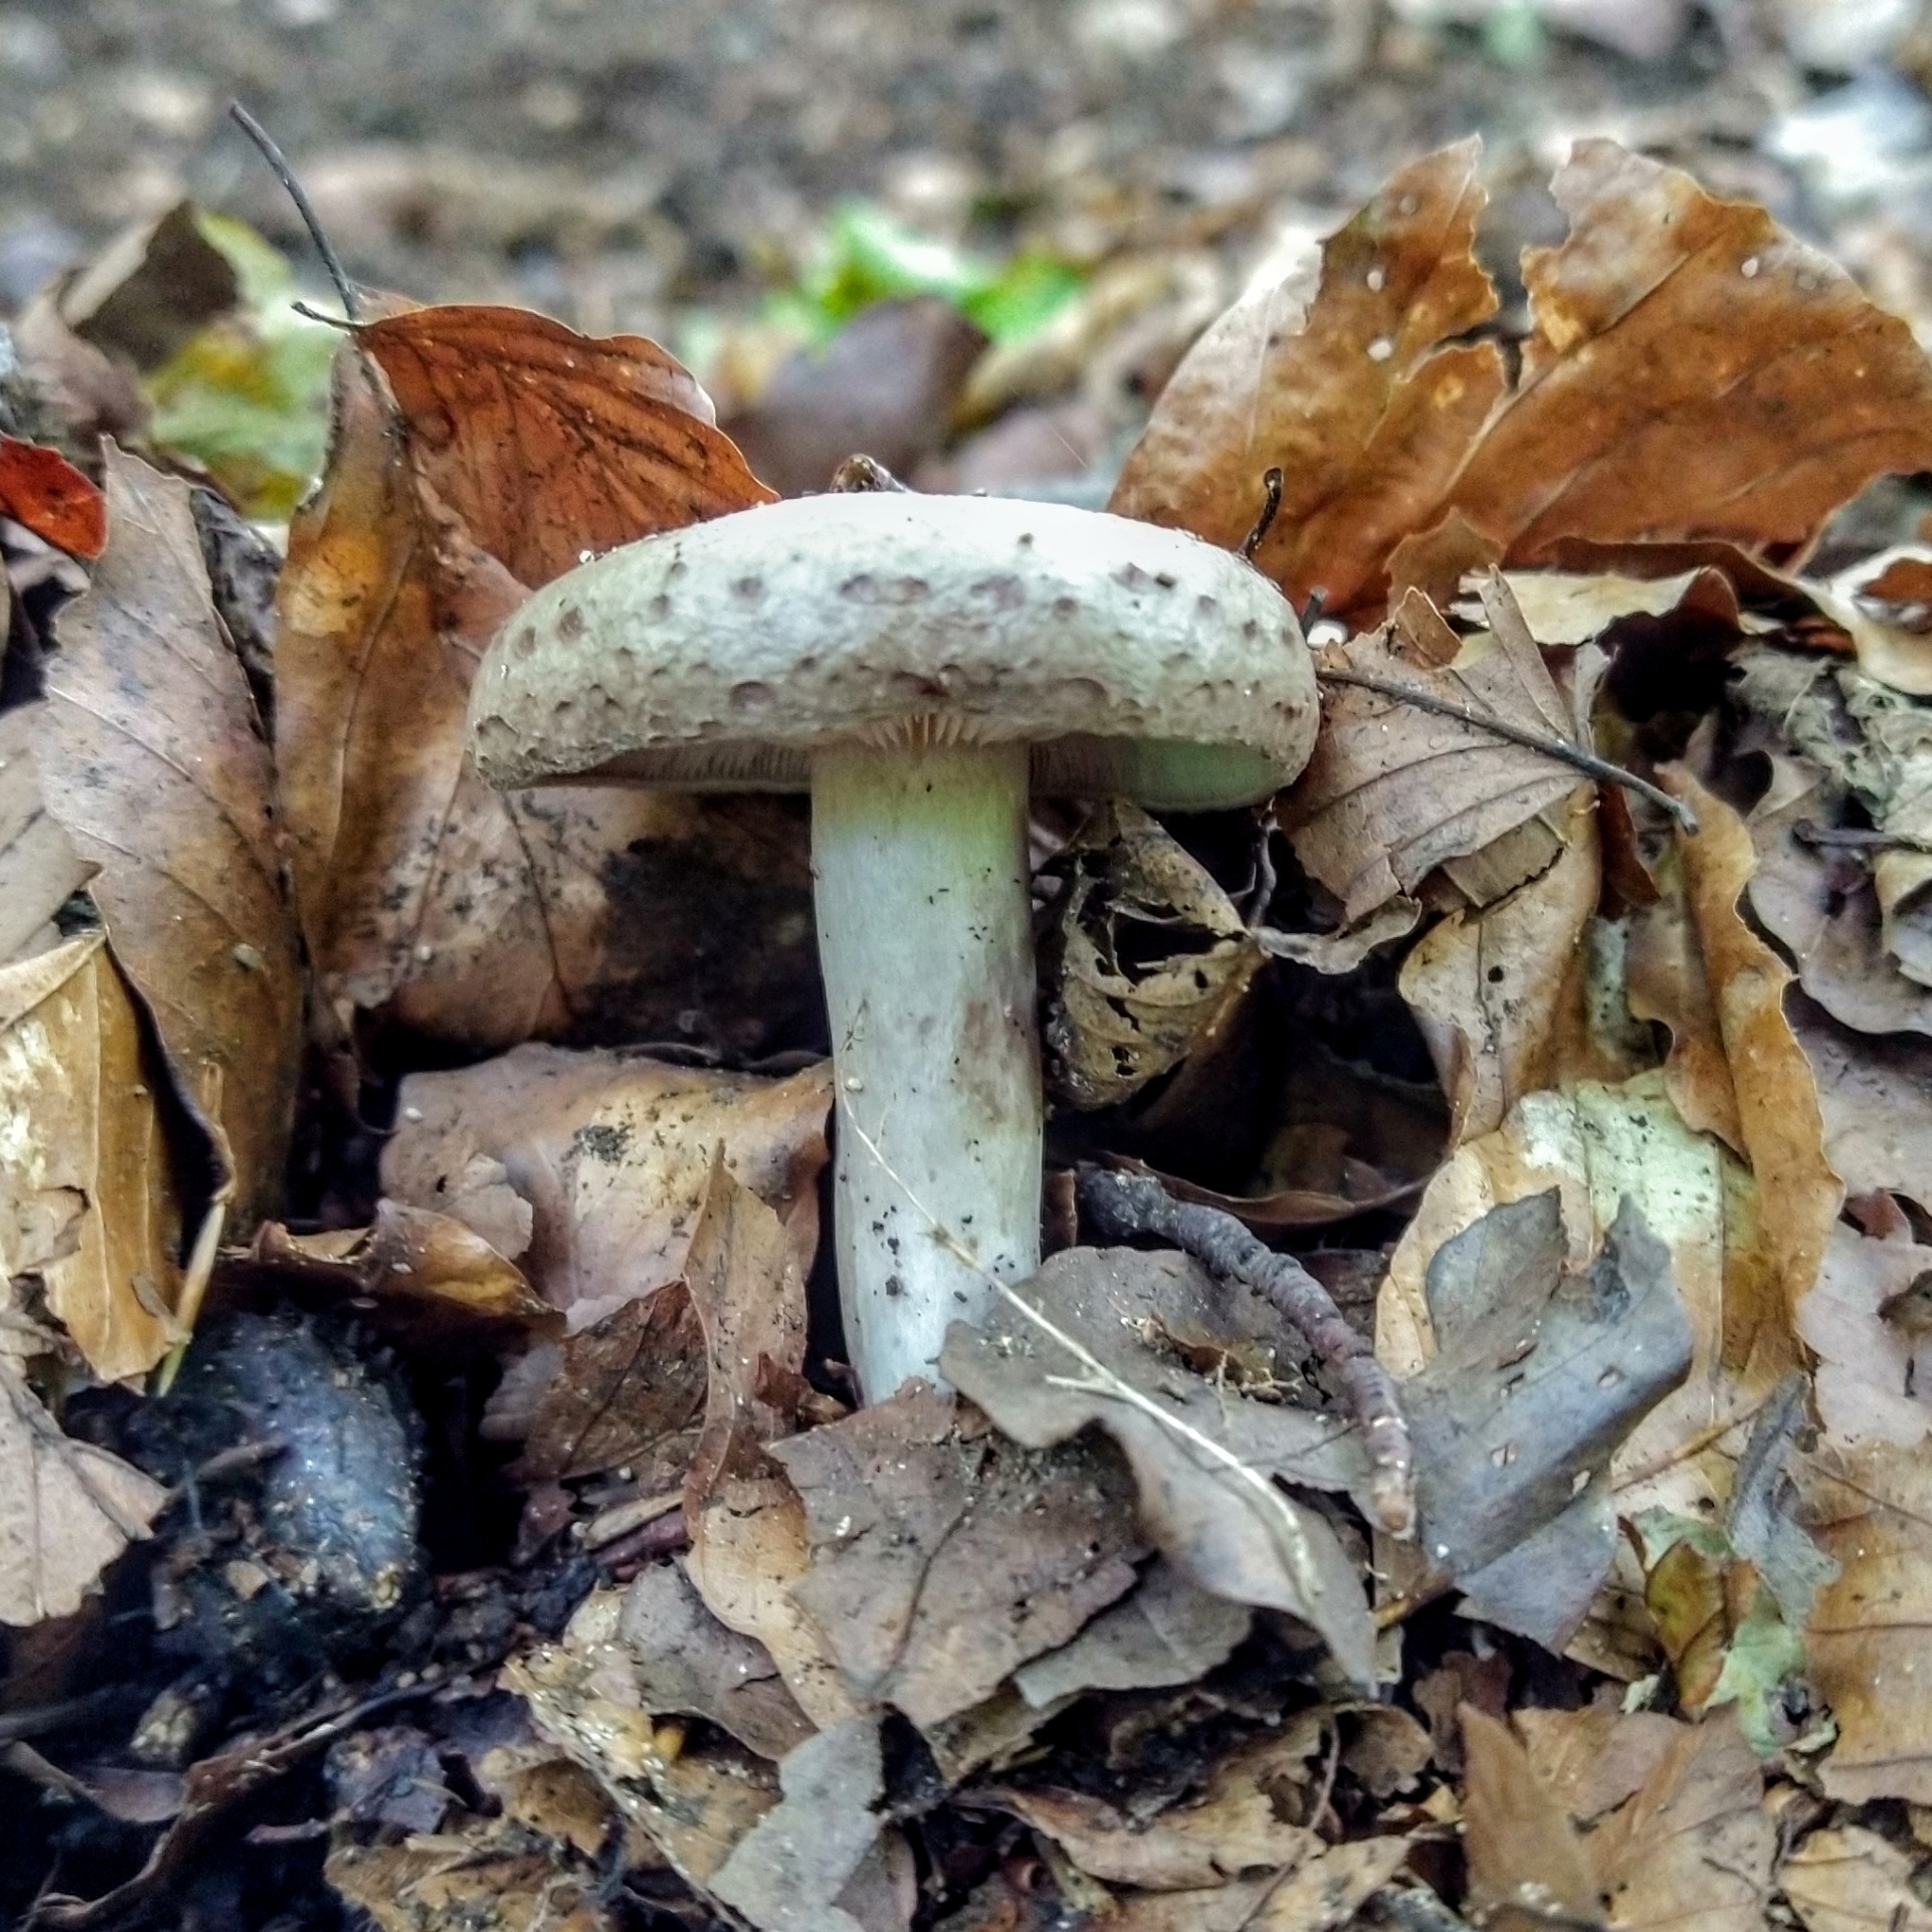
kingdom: Fungi
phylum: Basidiomycota
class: Agaricomycetes
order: Russulales
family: Russulaceae
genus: Lactarius
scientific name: Lactarius blennius
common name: Beech milkcap
